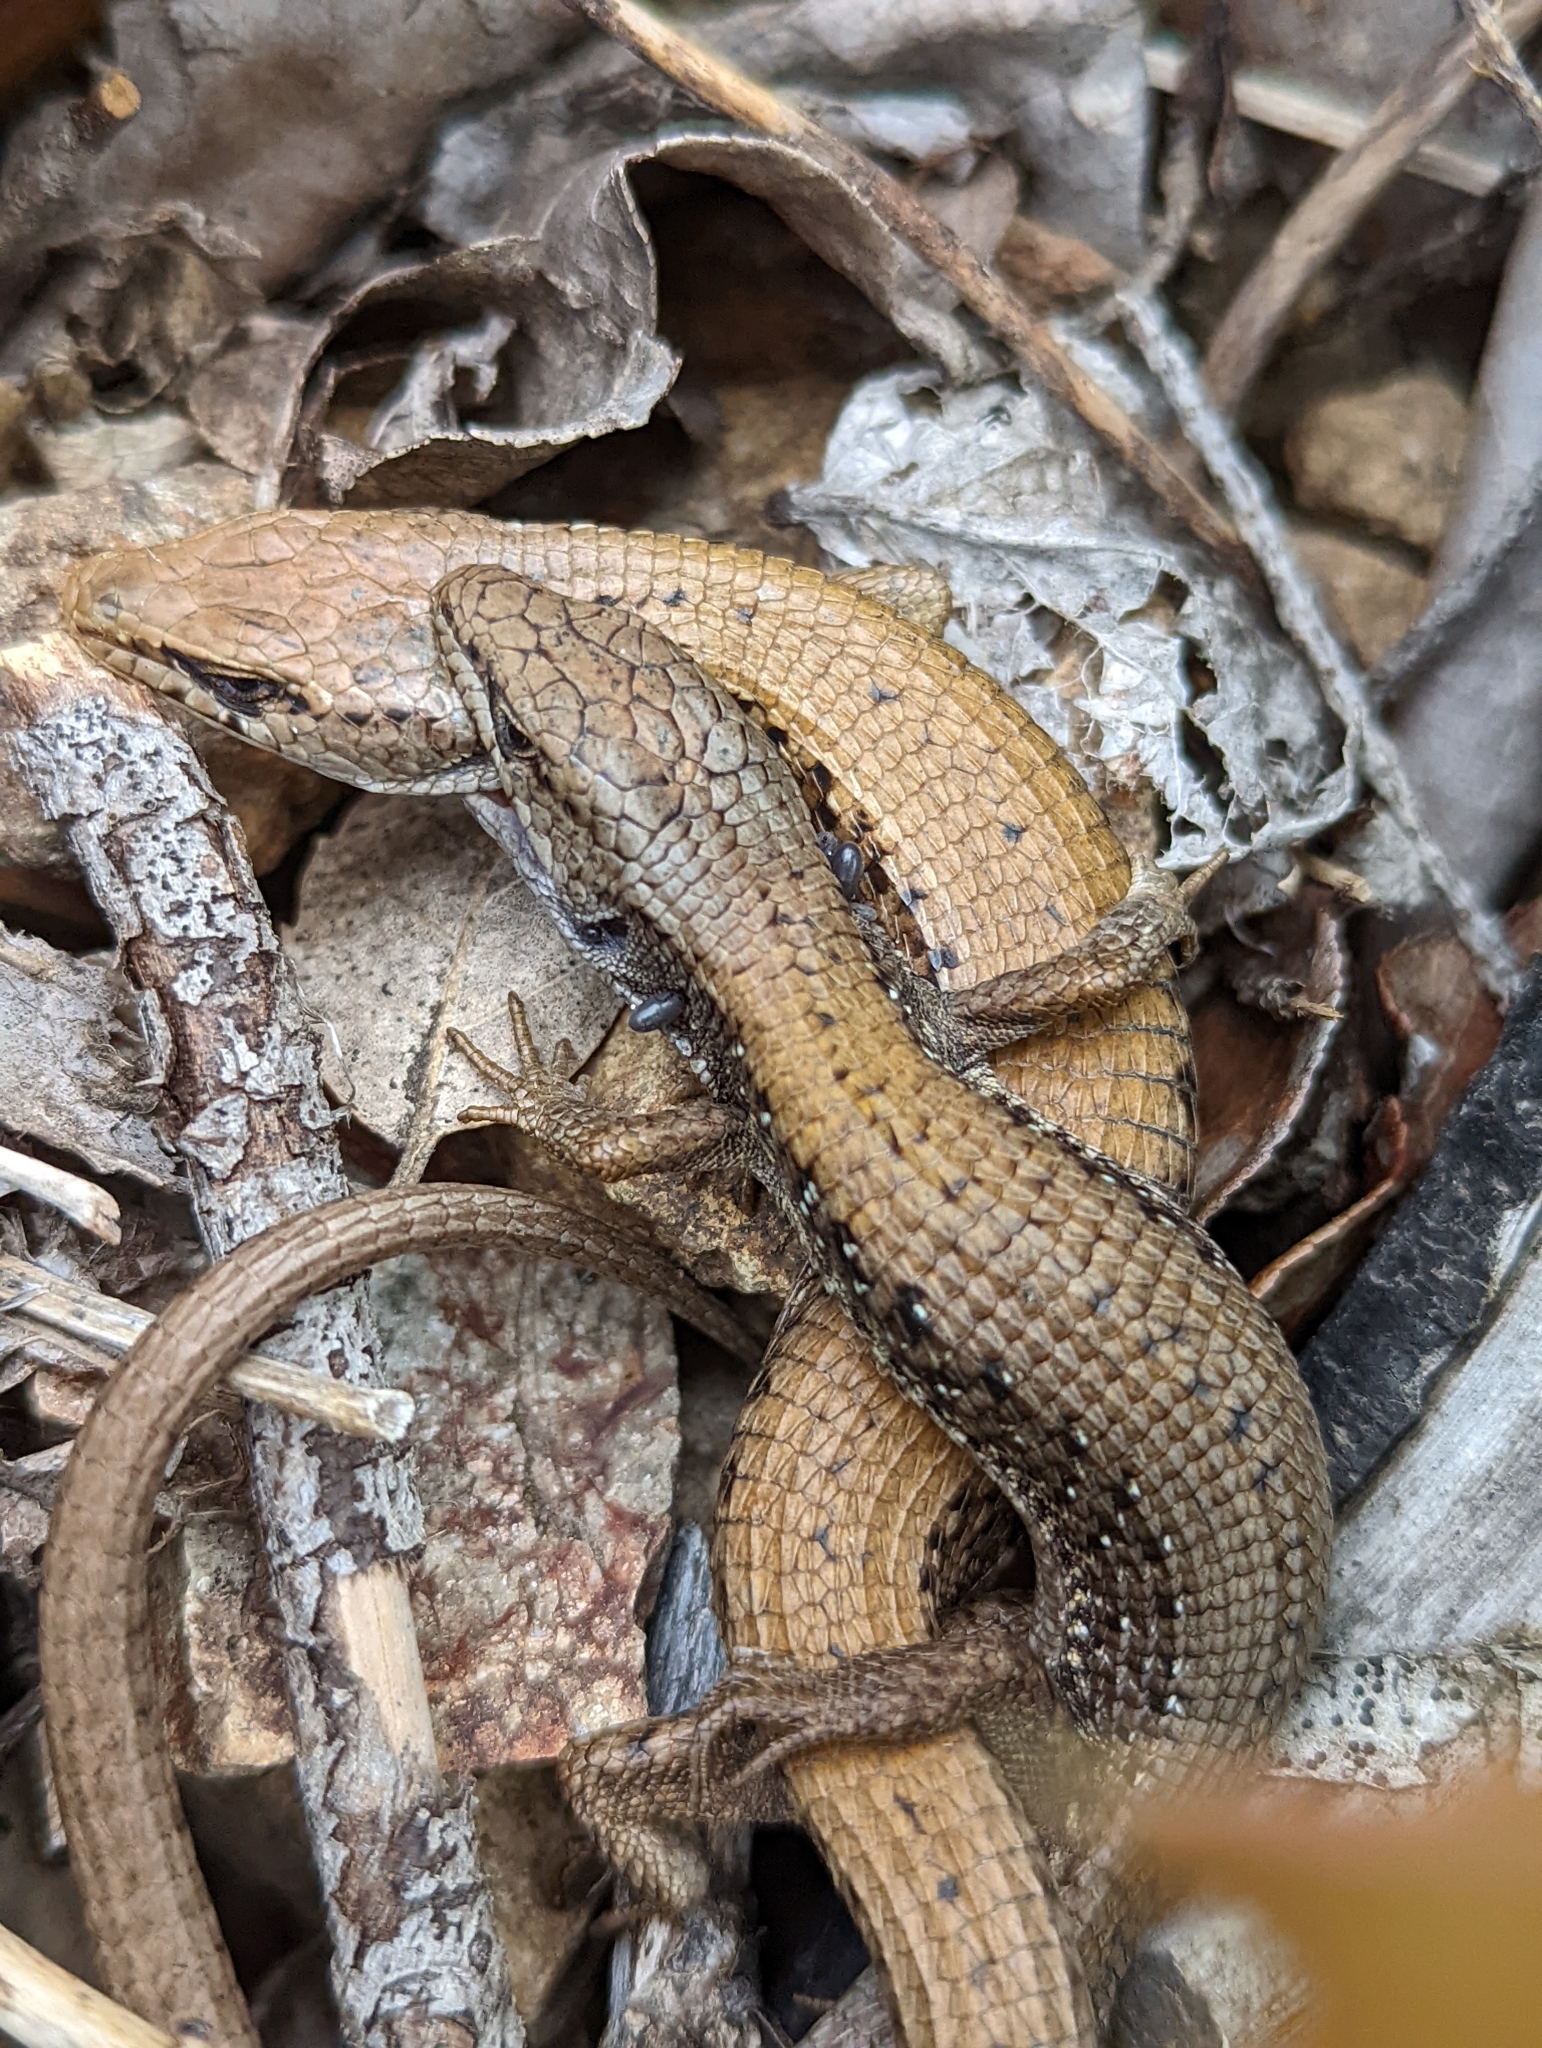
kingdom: Animalia
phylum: Chordata
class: Squamata
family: Anguidae
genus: Elgaria
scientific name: Elgaria coerulea
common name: Northern alligator lizard
